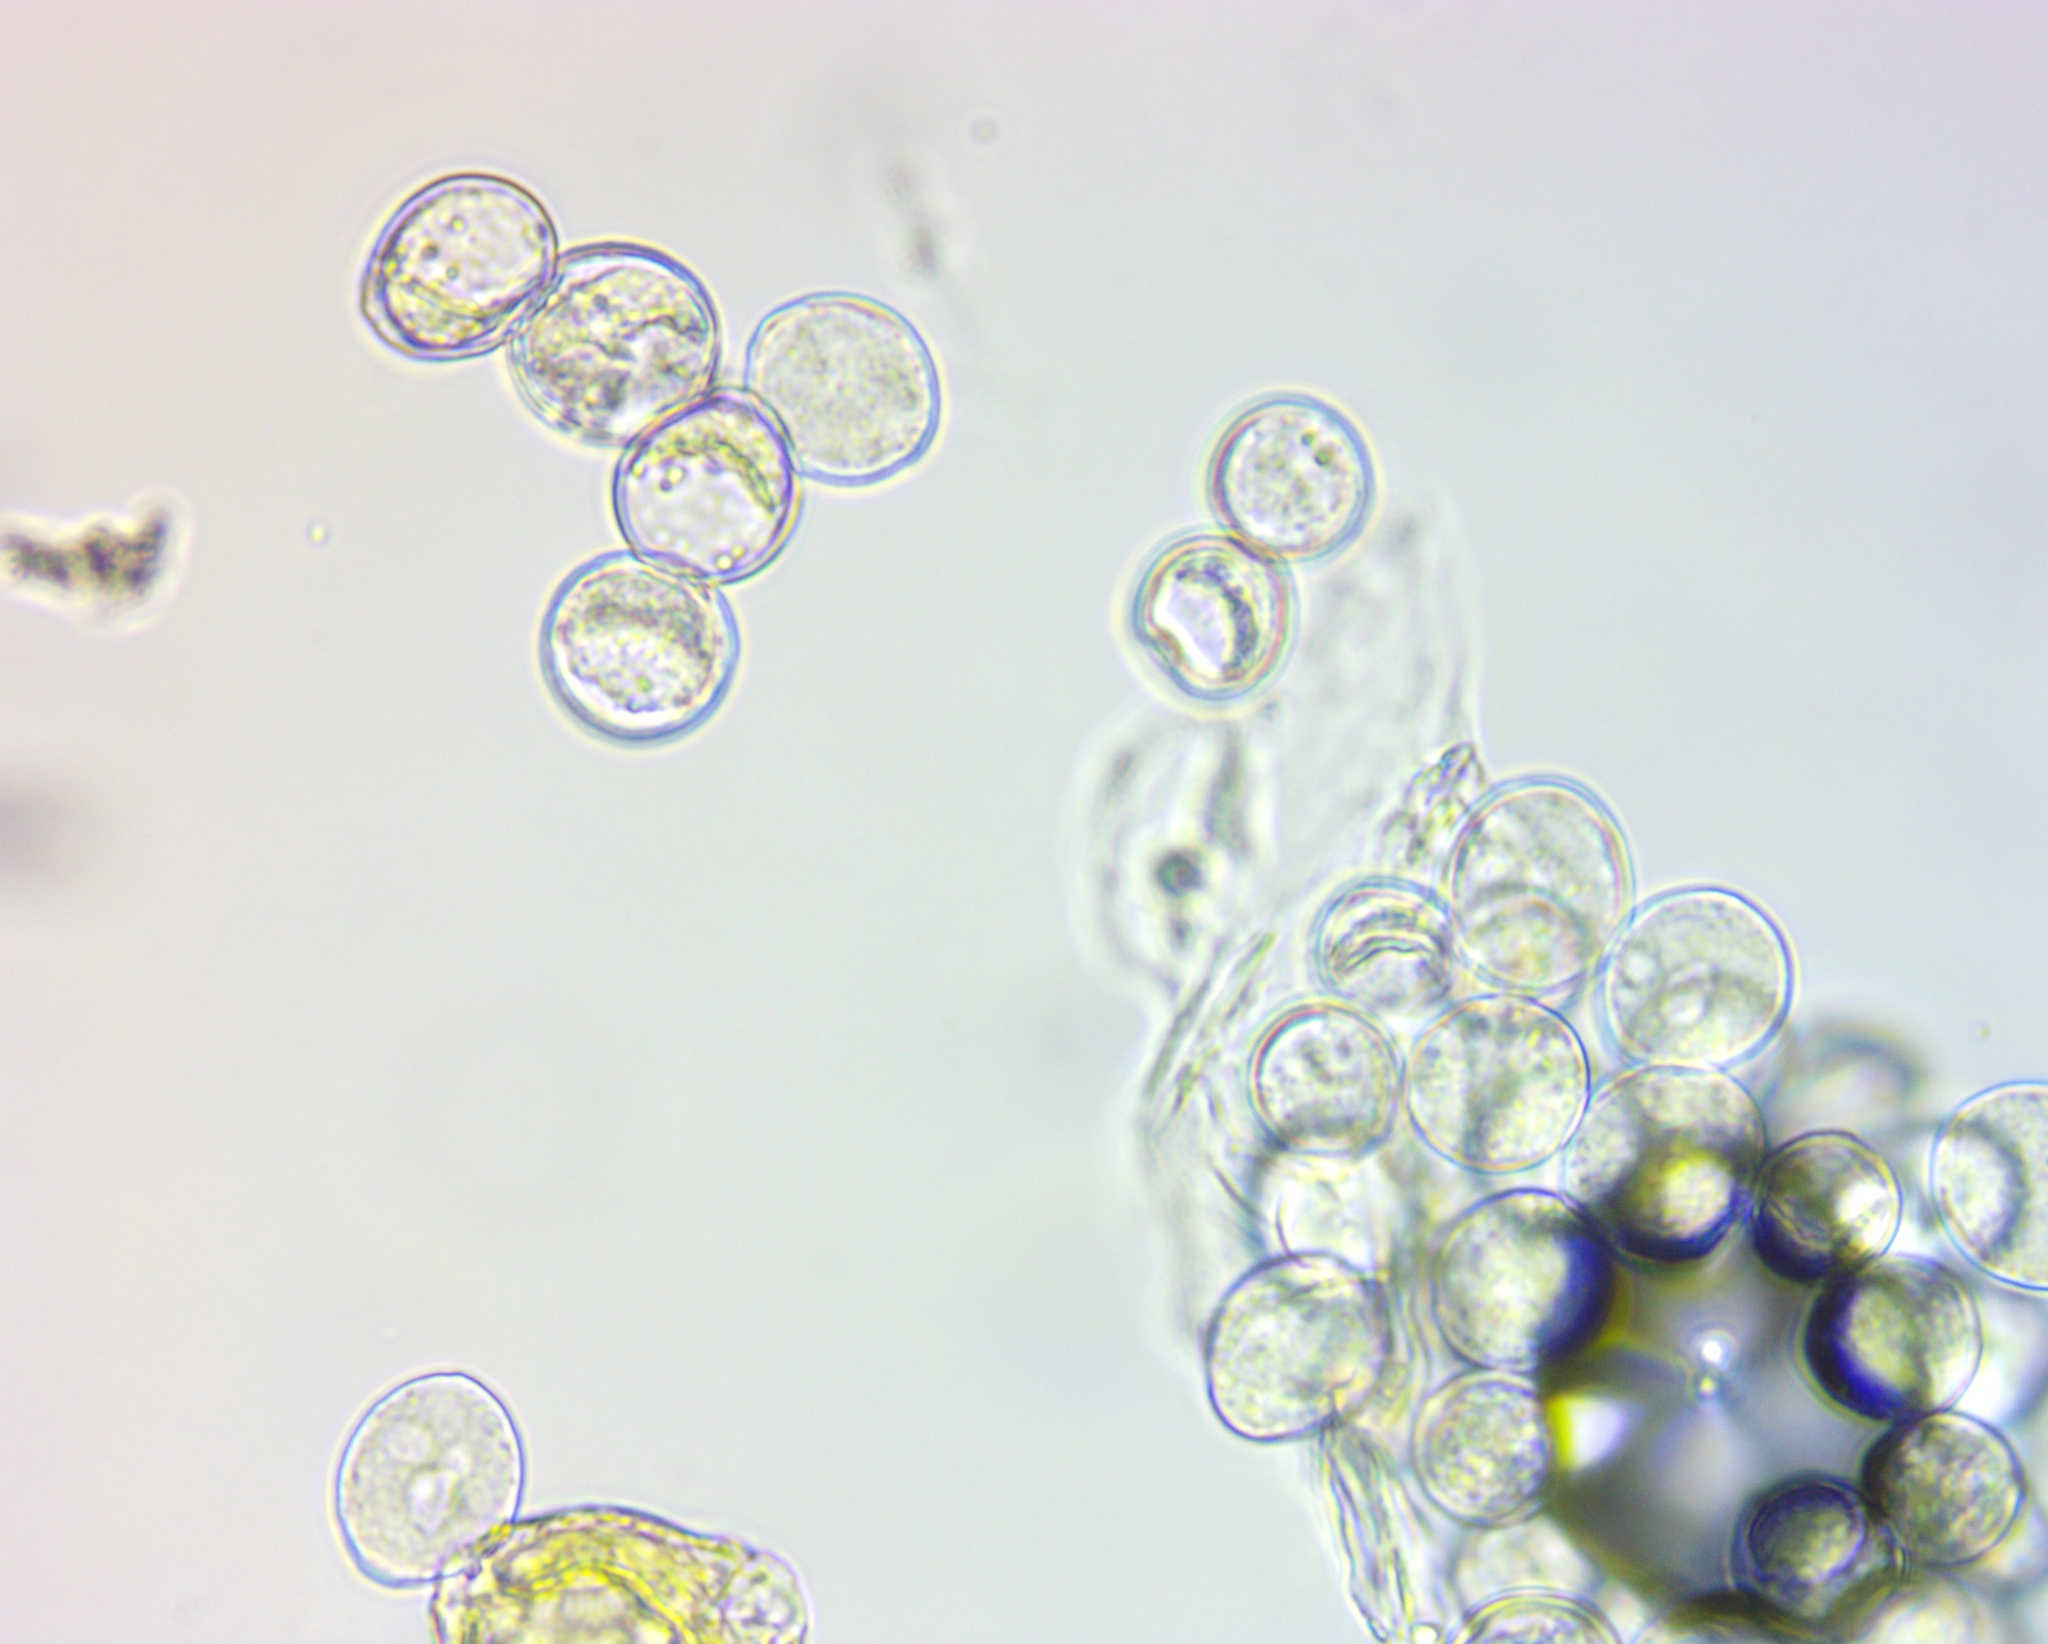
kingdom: Chromista
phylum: Oomycota
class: Peronosporea
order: Albuginales
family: Albuginaceae
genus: Albugo
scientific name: Albugo candida
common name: Crucifer white blister
